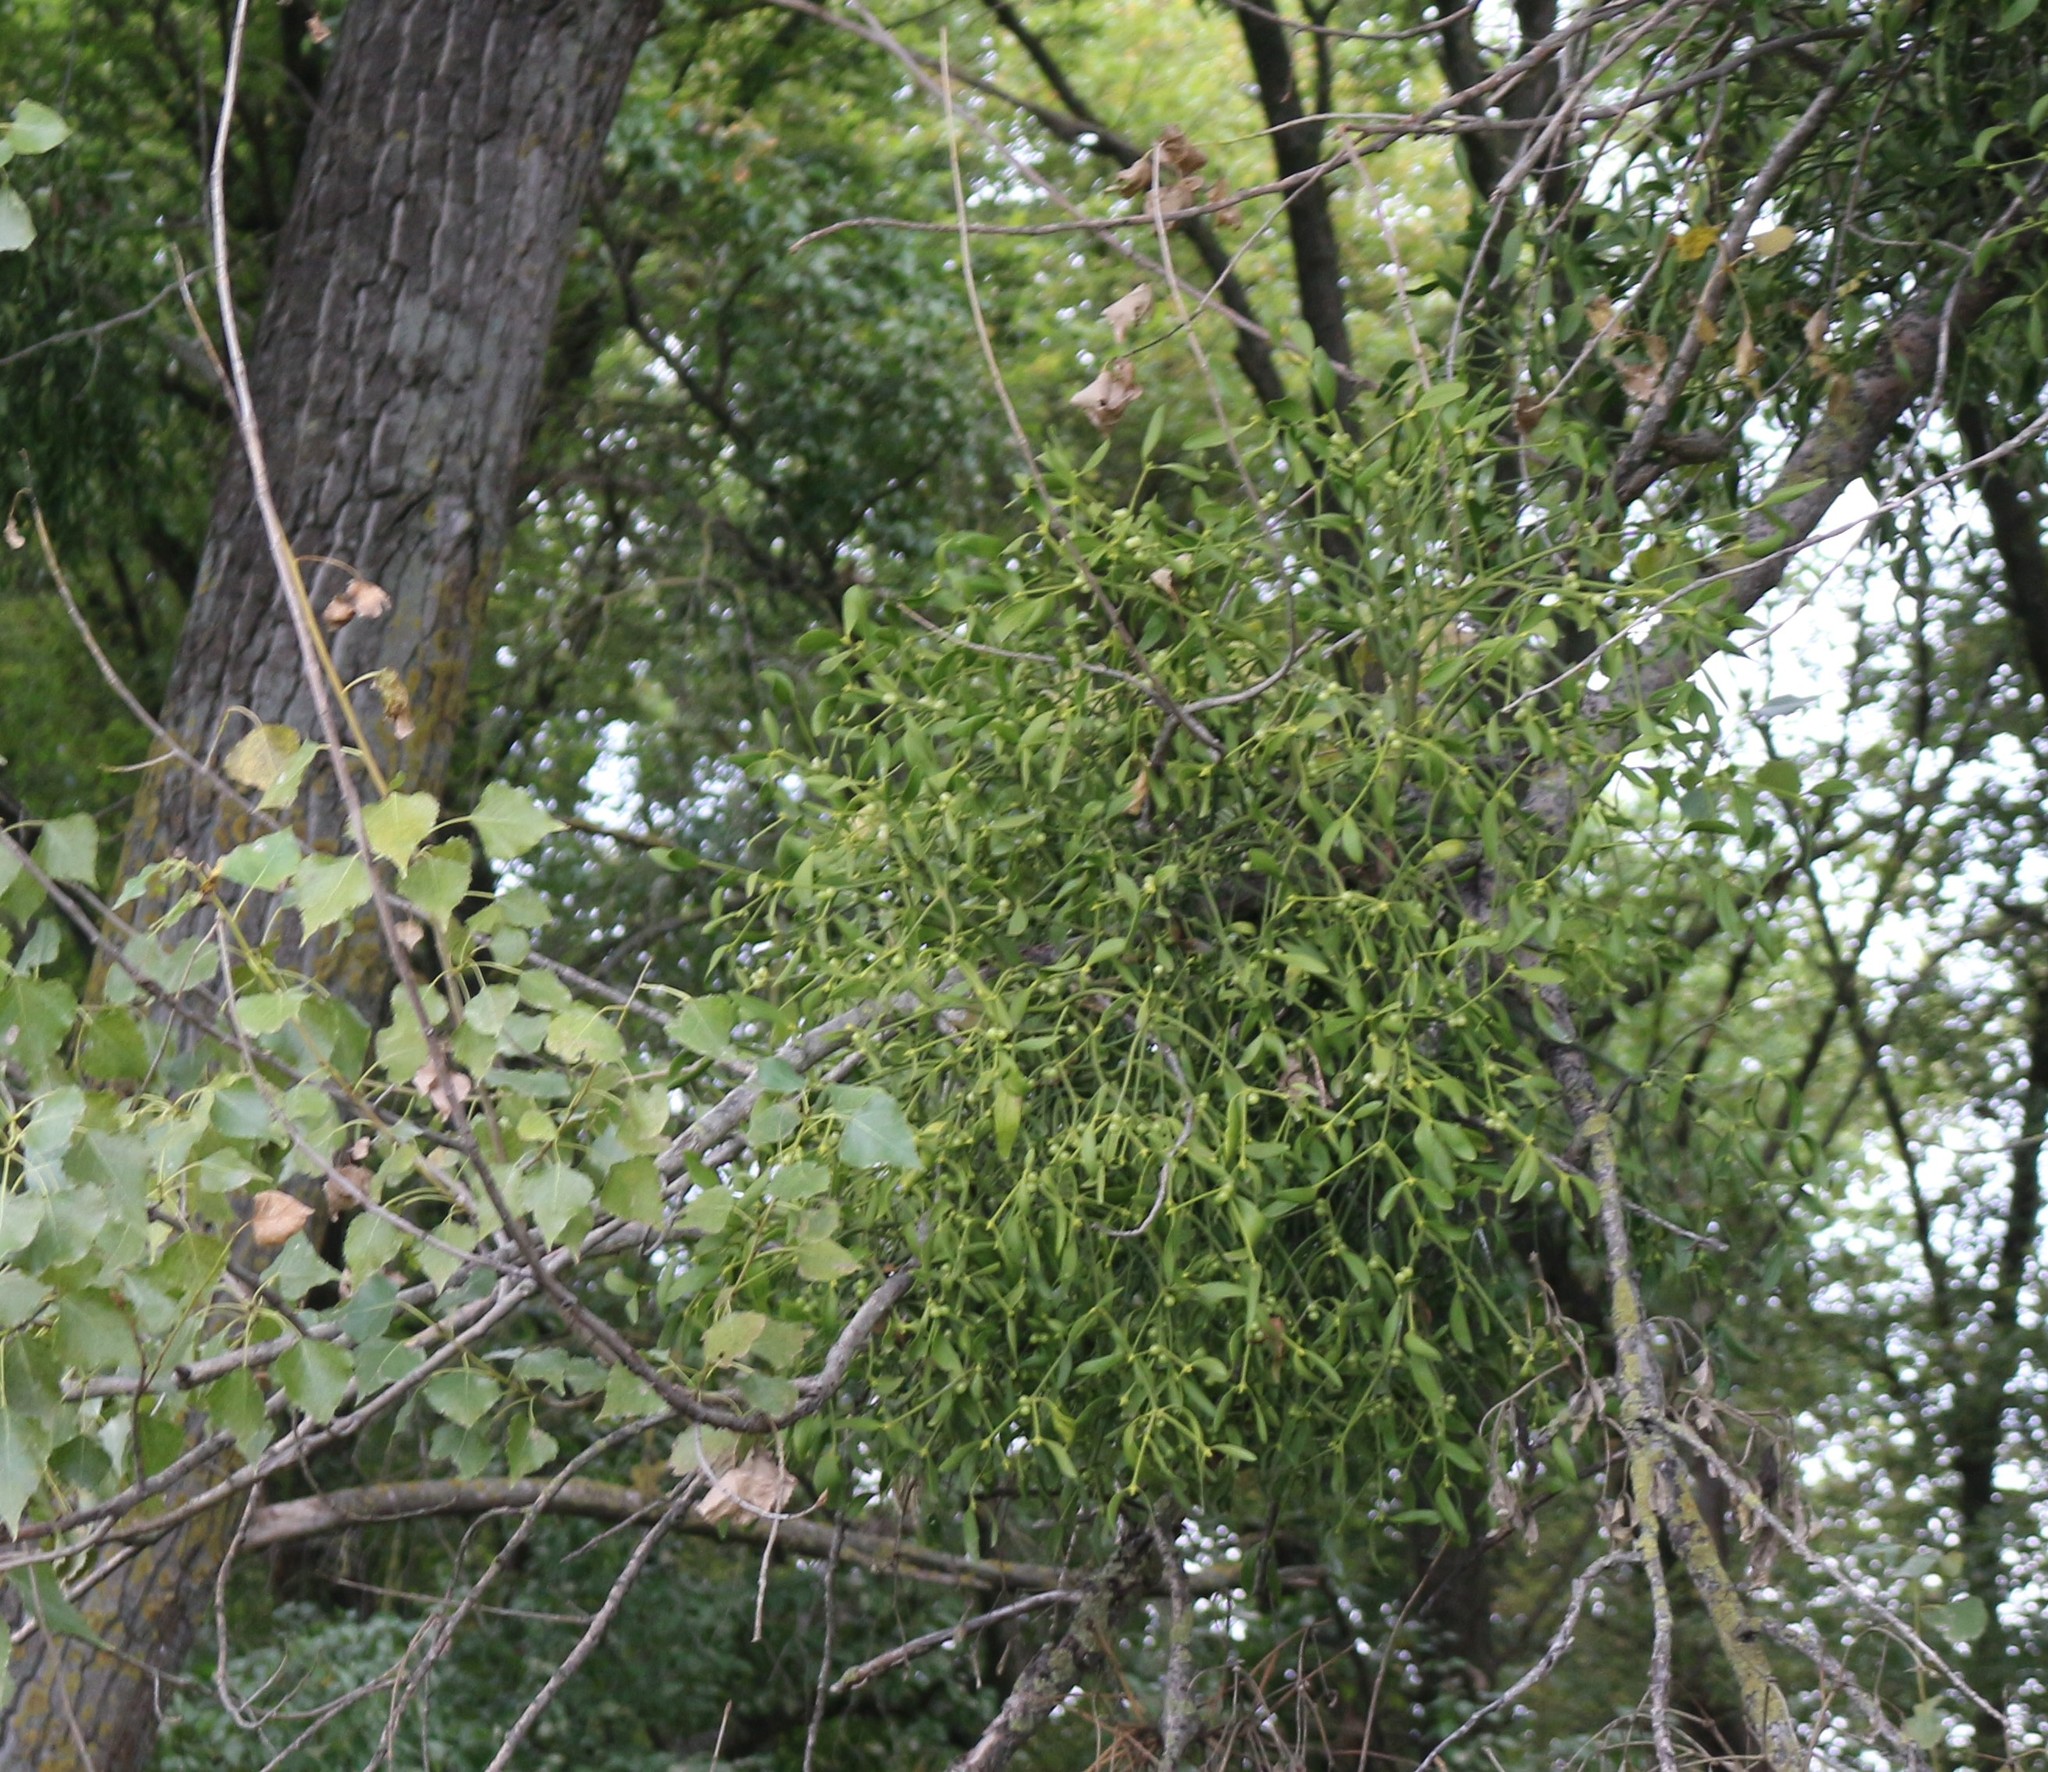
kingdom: Plantae
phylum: Tracheophyta
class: Magnoliopsida
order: Santalales
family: Viscaceae
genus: Viscum
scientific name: Viscum album
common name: Mistletoe
